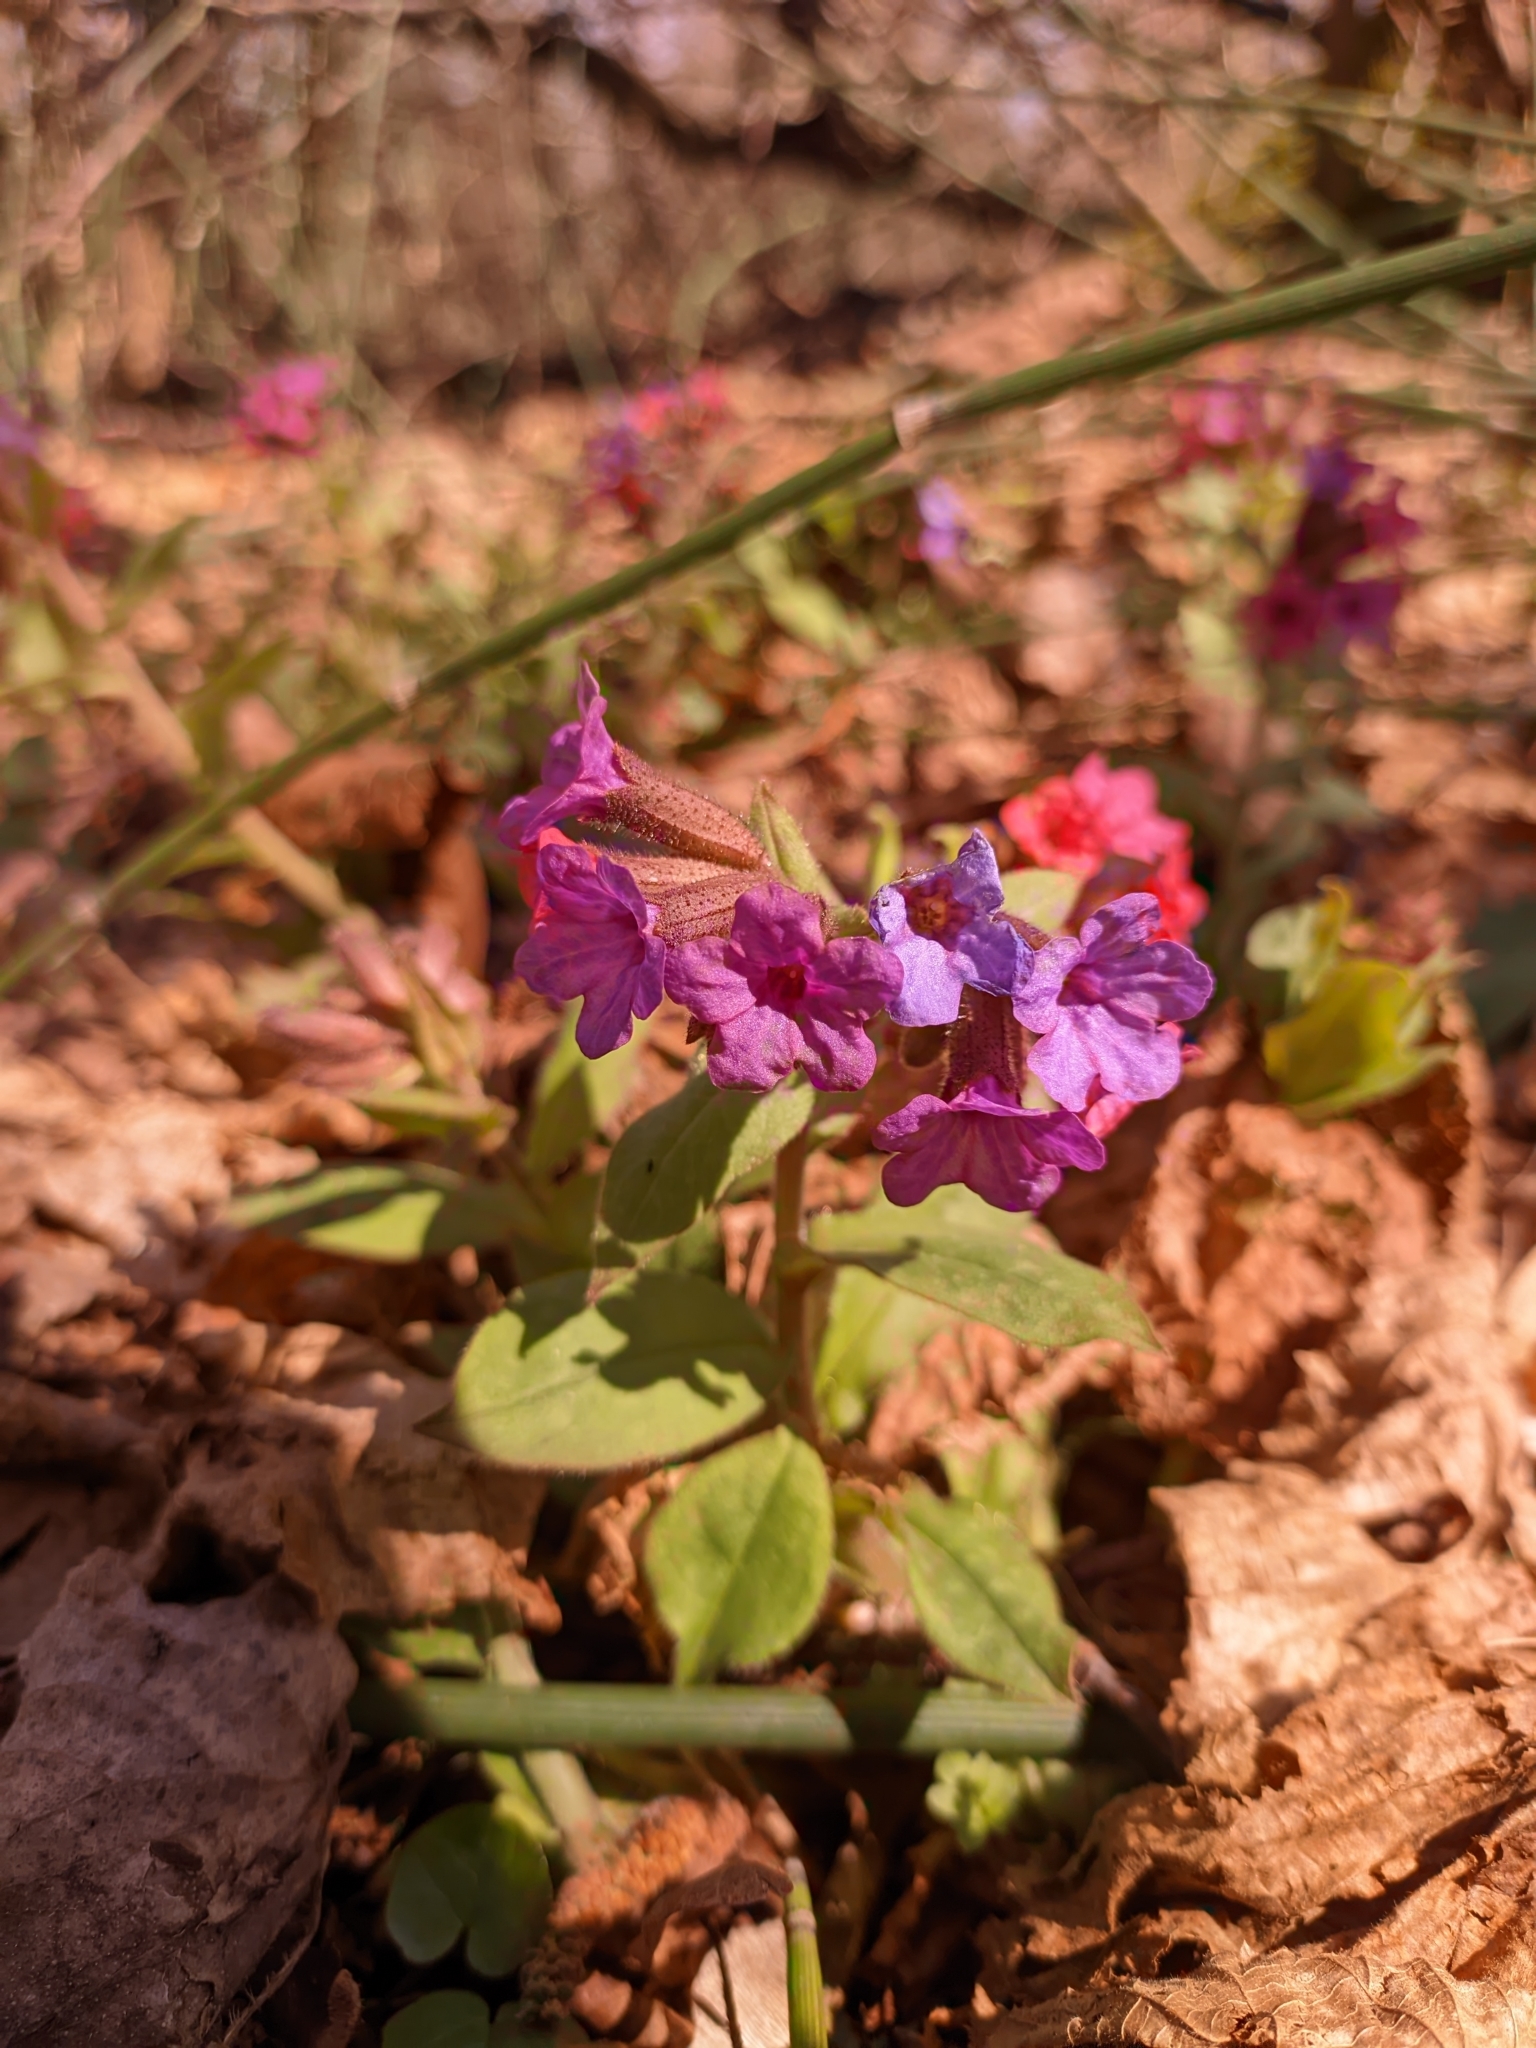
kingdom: Plantae
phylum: Tracheophyta
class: Magnoliopsida
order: Boraginales
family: Boraginaceae
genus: Pulmonaria
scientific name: Pulmonaria obscura
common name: Suffolk lungwort
